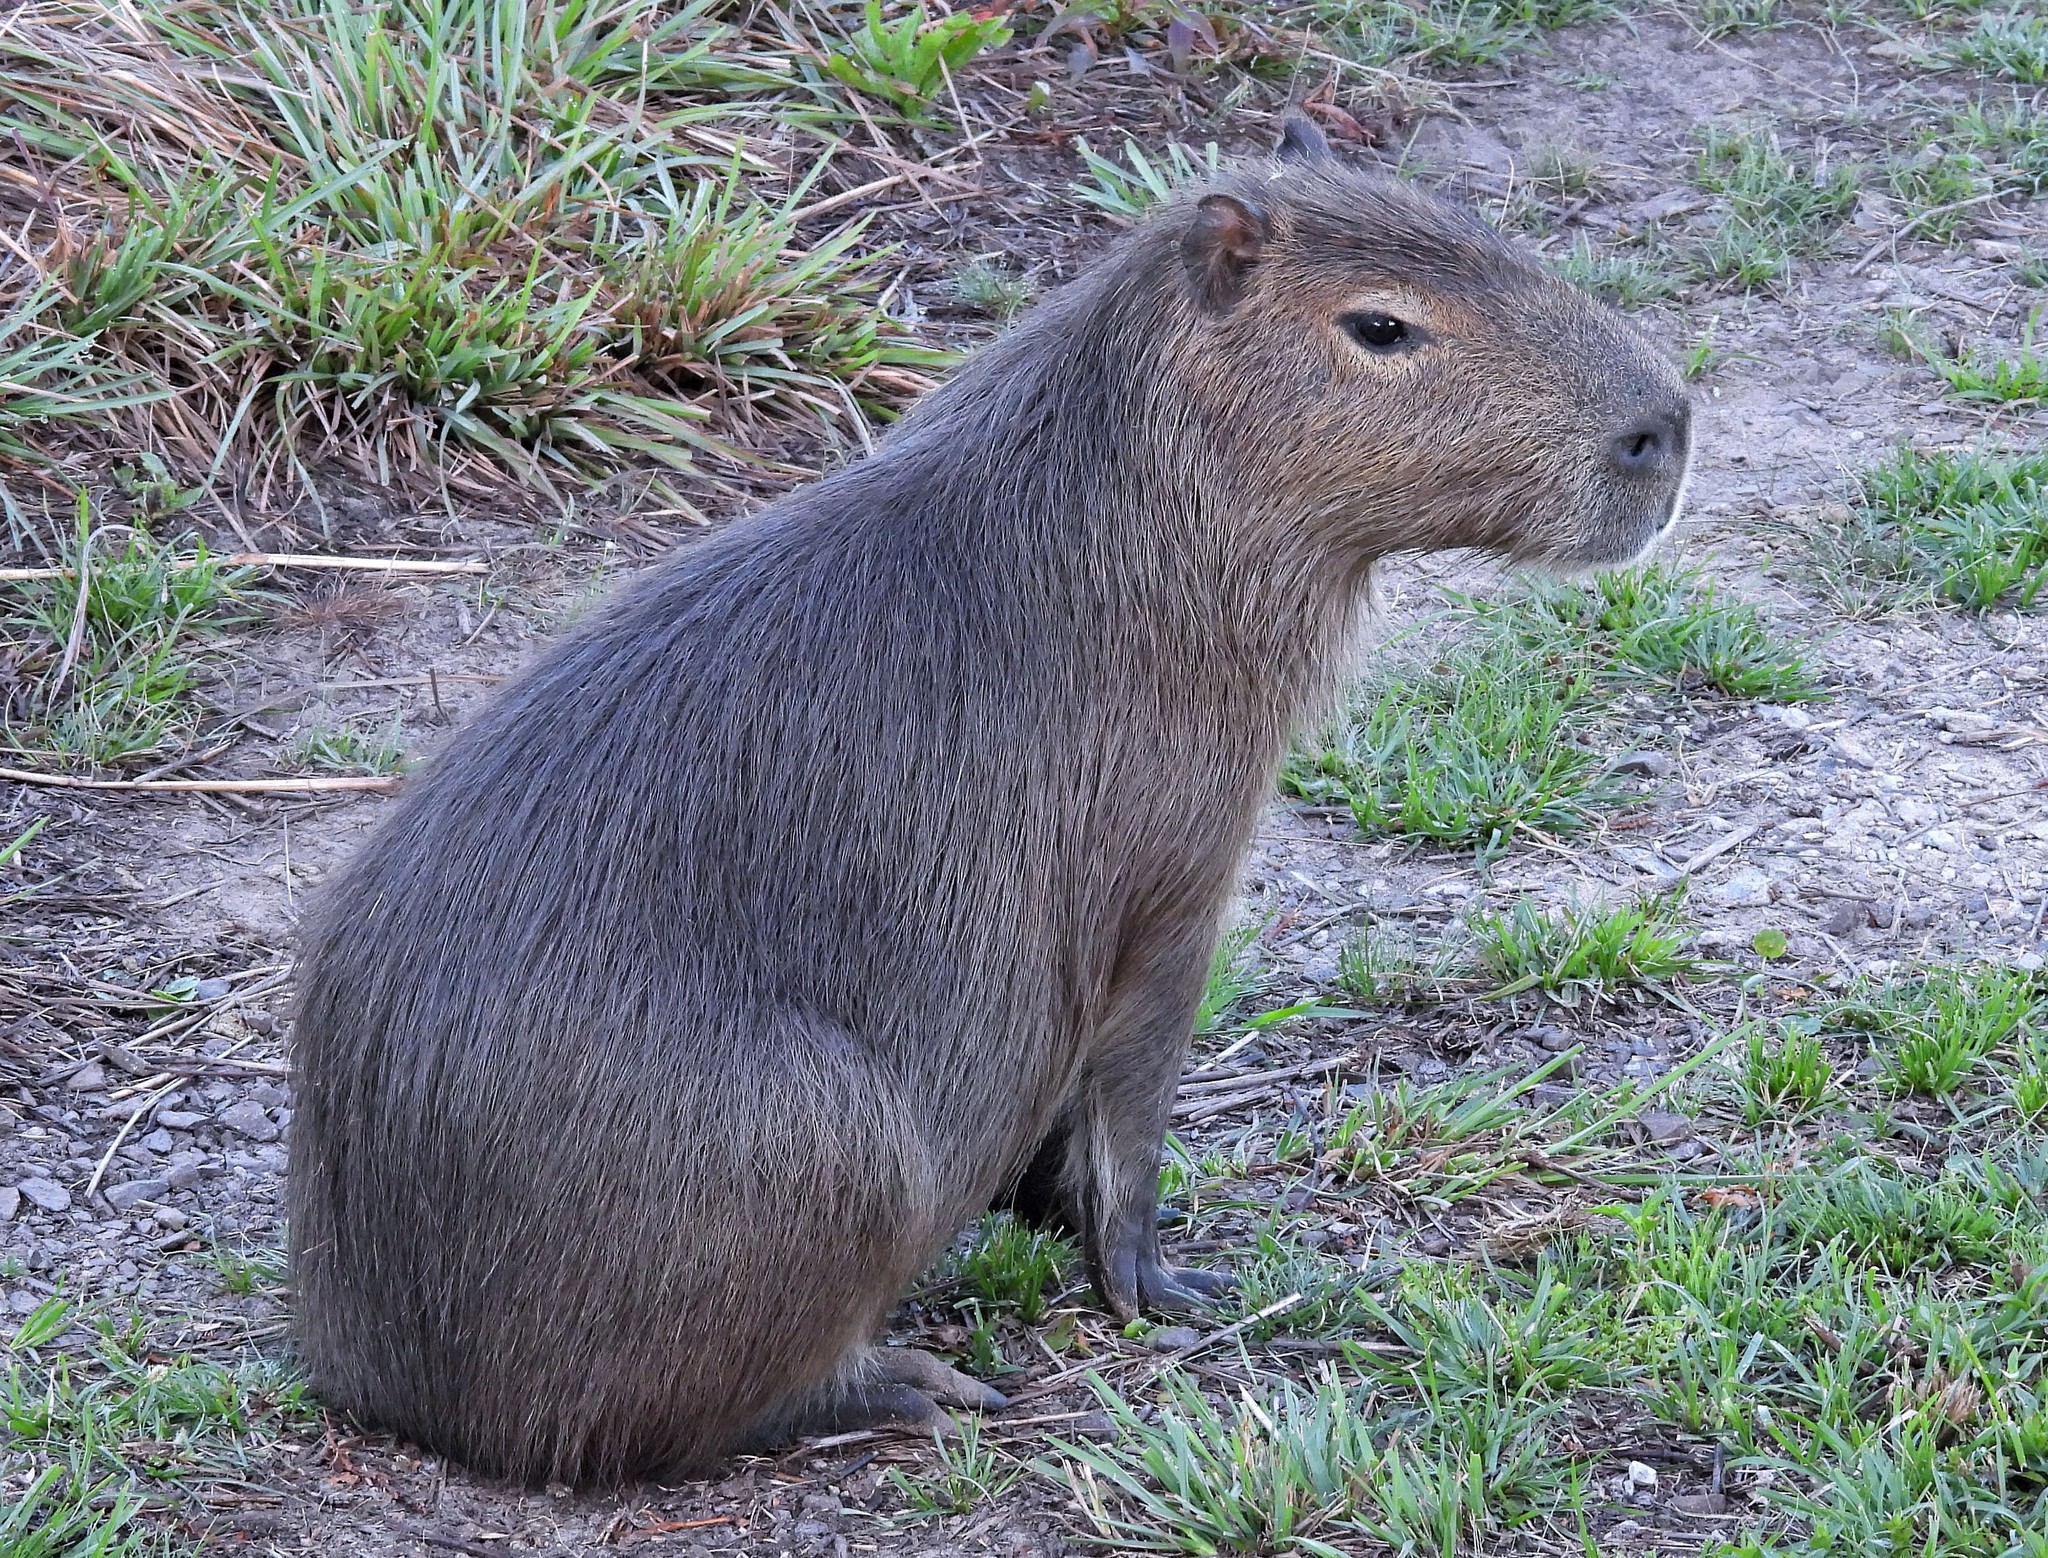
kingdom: Animalia
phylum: Chordata
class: Mammalia
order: Rodentia
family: Caviidae
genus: Hydrochoerus
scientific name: Hydrochoerus hydrochaeris
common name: Capybara
